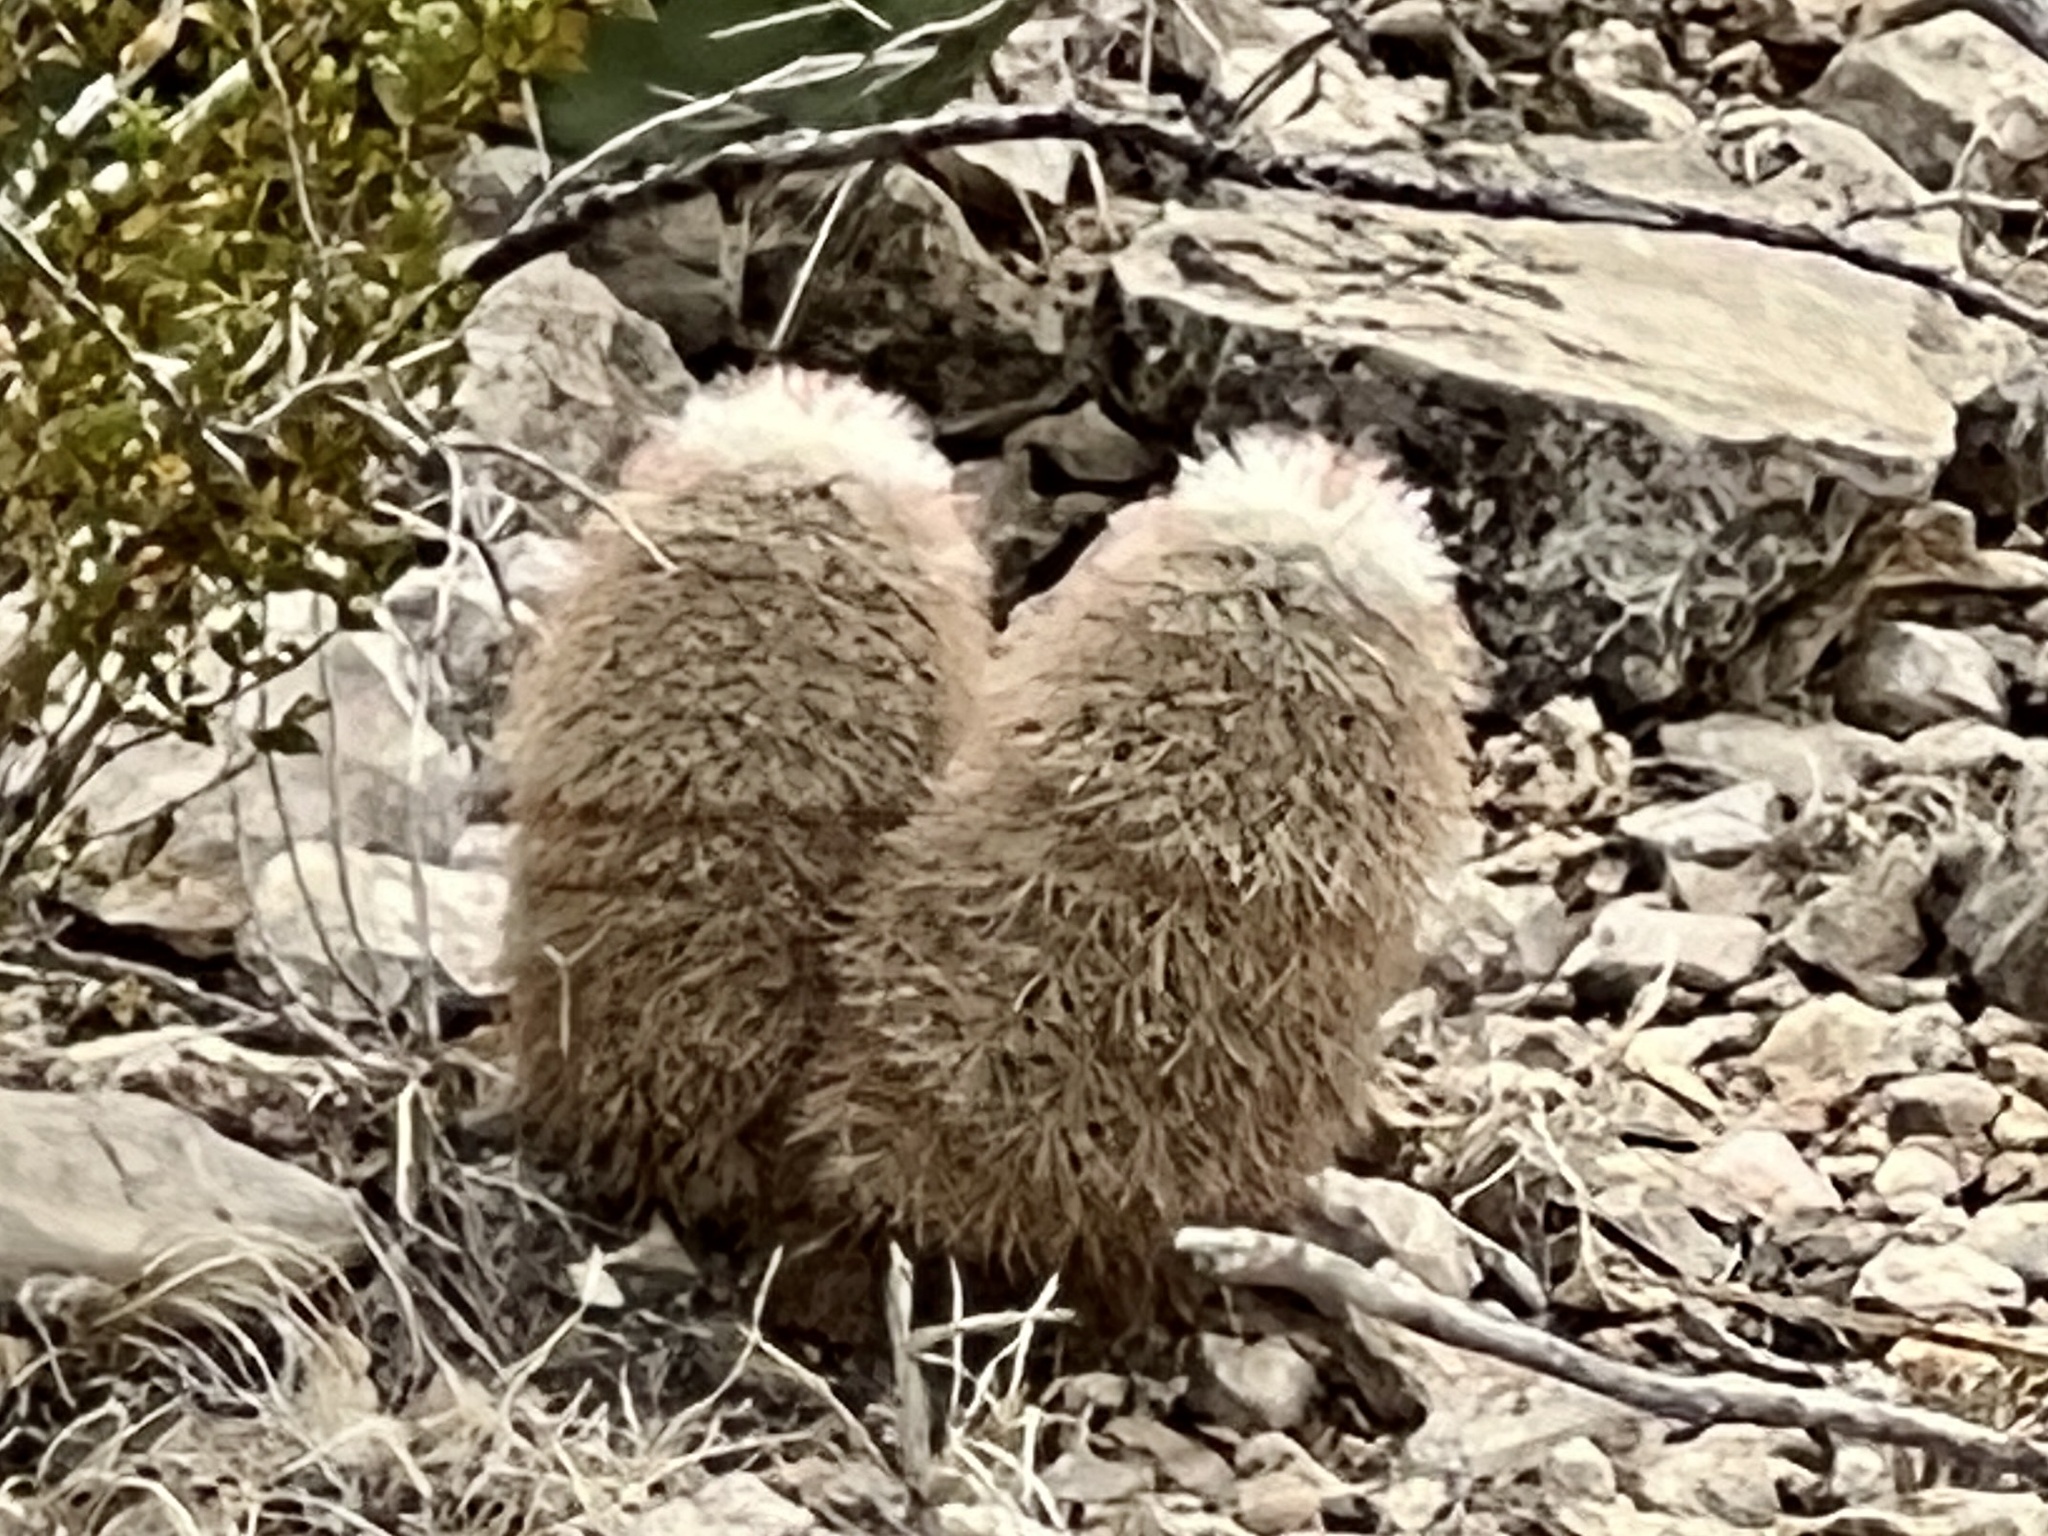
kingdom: Plantae
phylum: Tracheophyta
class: Magnoliopsida
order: Caryophyllales
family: Cactaceae
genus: Echinocereus
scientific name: Echinocereus dasyacanthus
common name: Spiny hedgehog cactus
